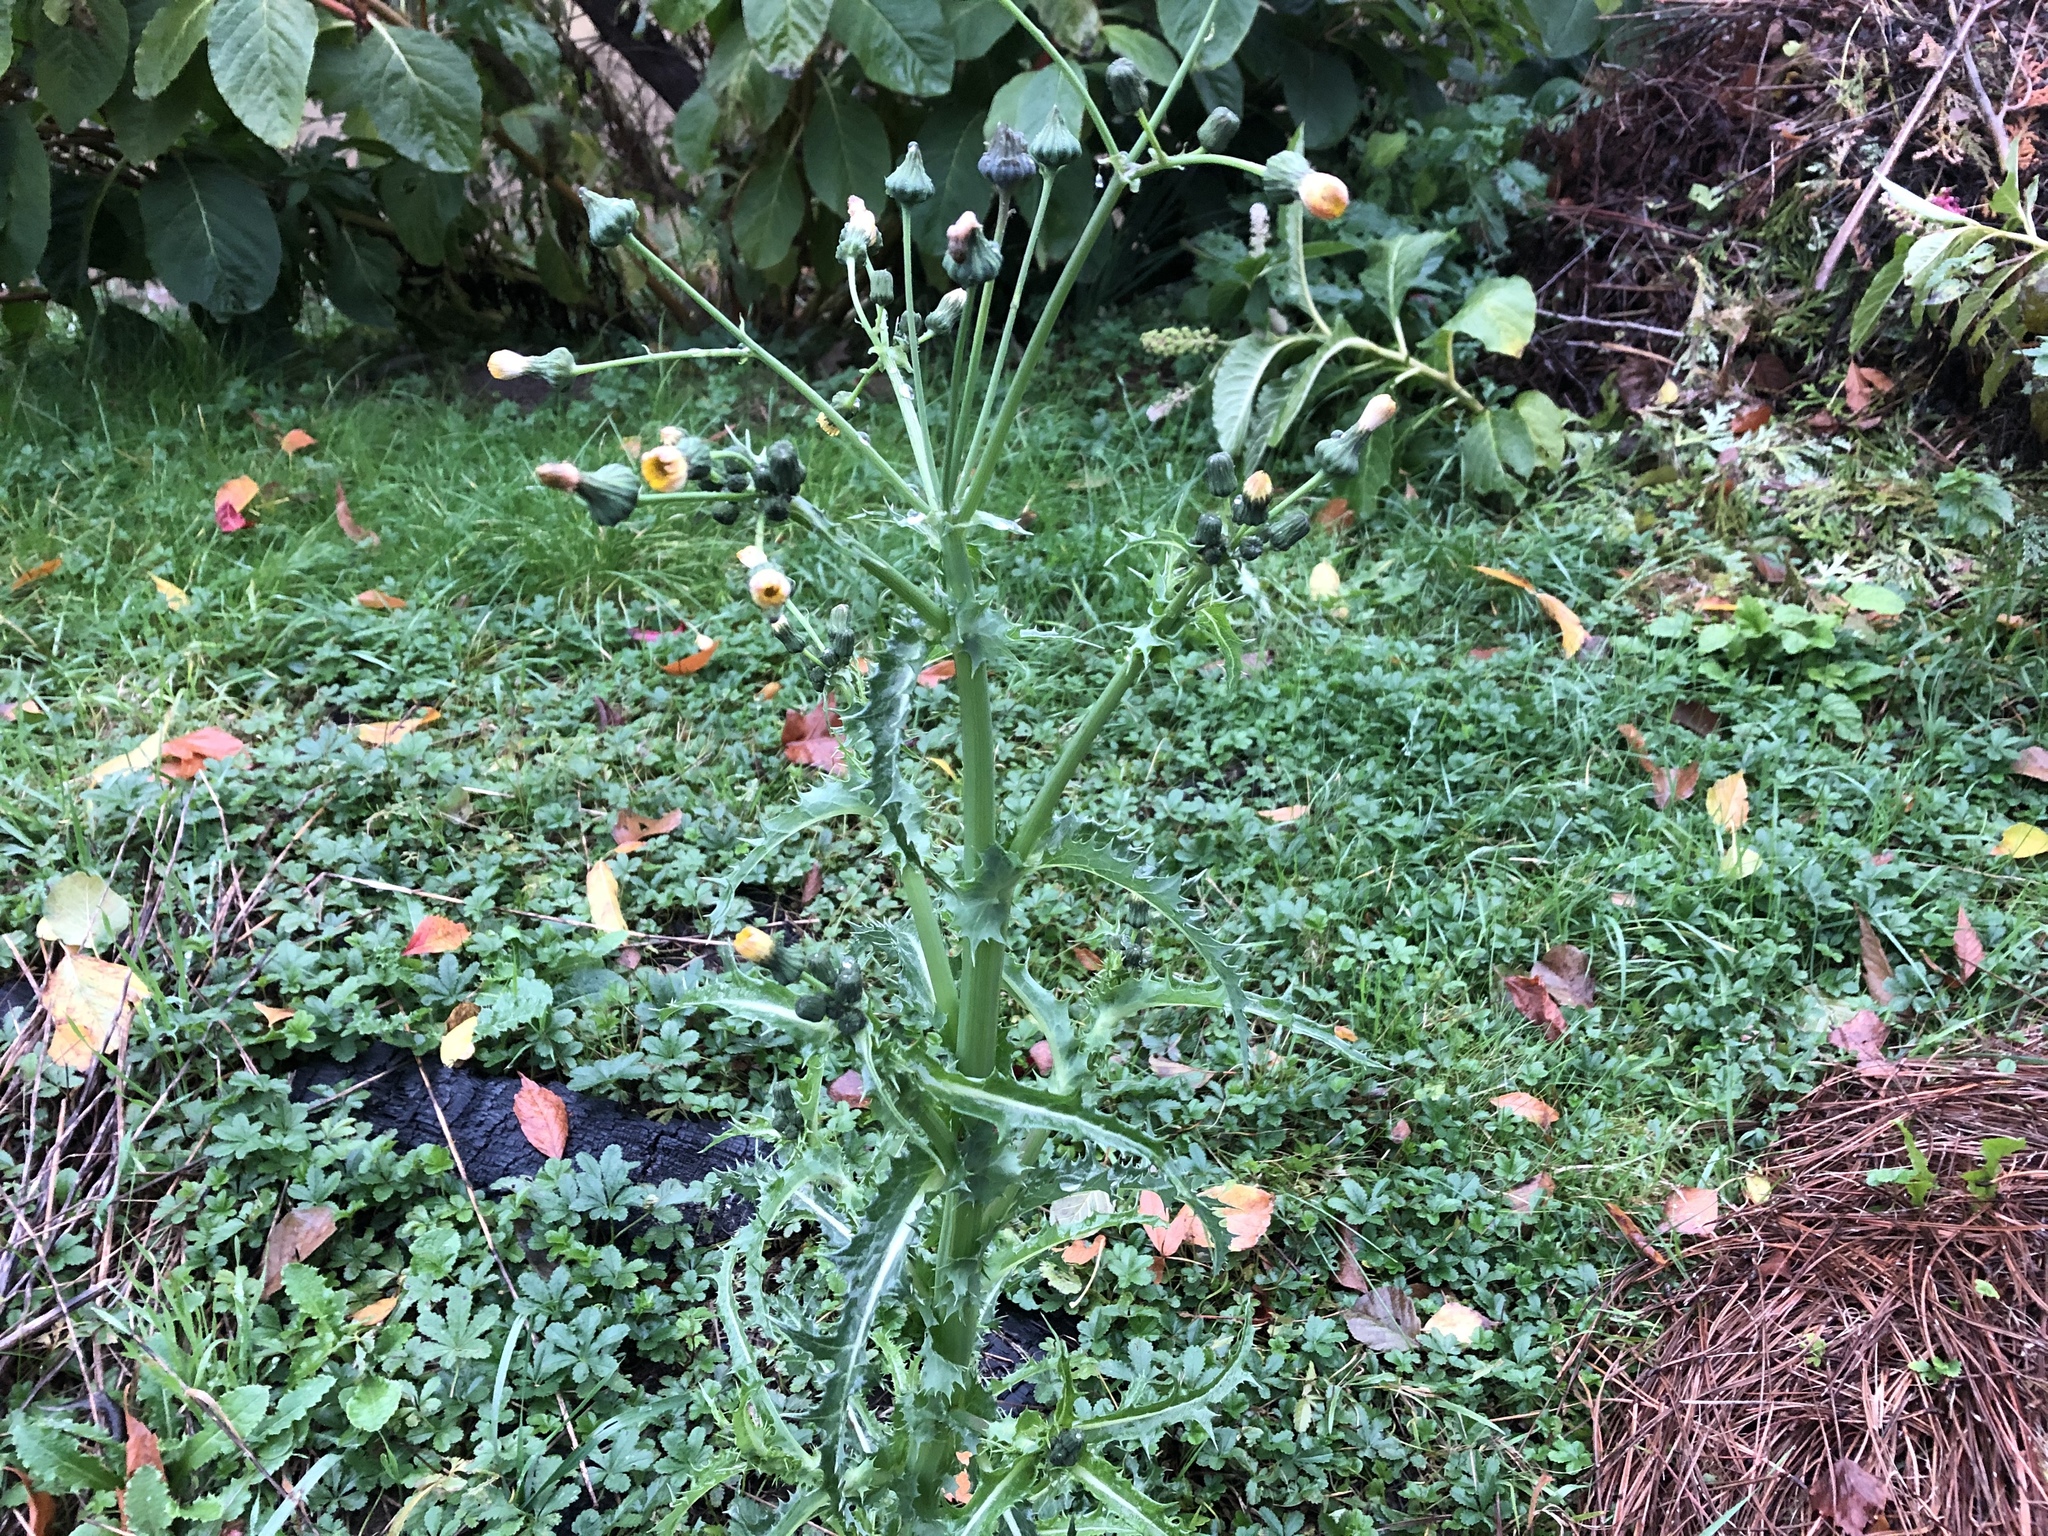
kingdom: Plantae
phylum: Tracheophyta
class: Magnoliopsida
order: Asterales
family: Asteraceae
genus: Sonchus
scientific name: Sonchus asper
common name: Prickly sow-thistle
